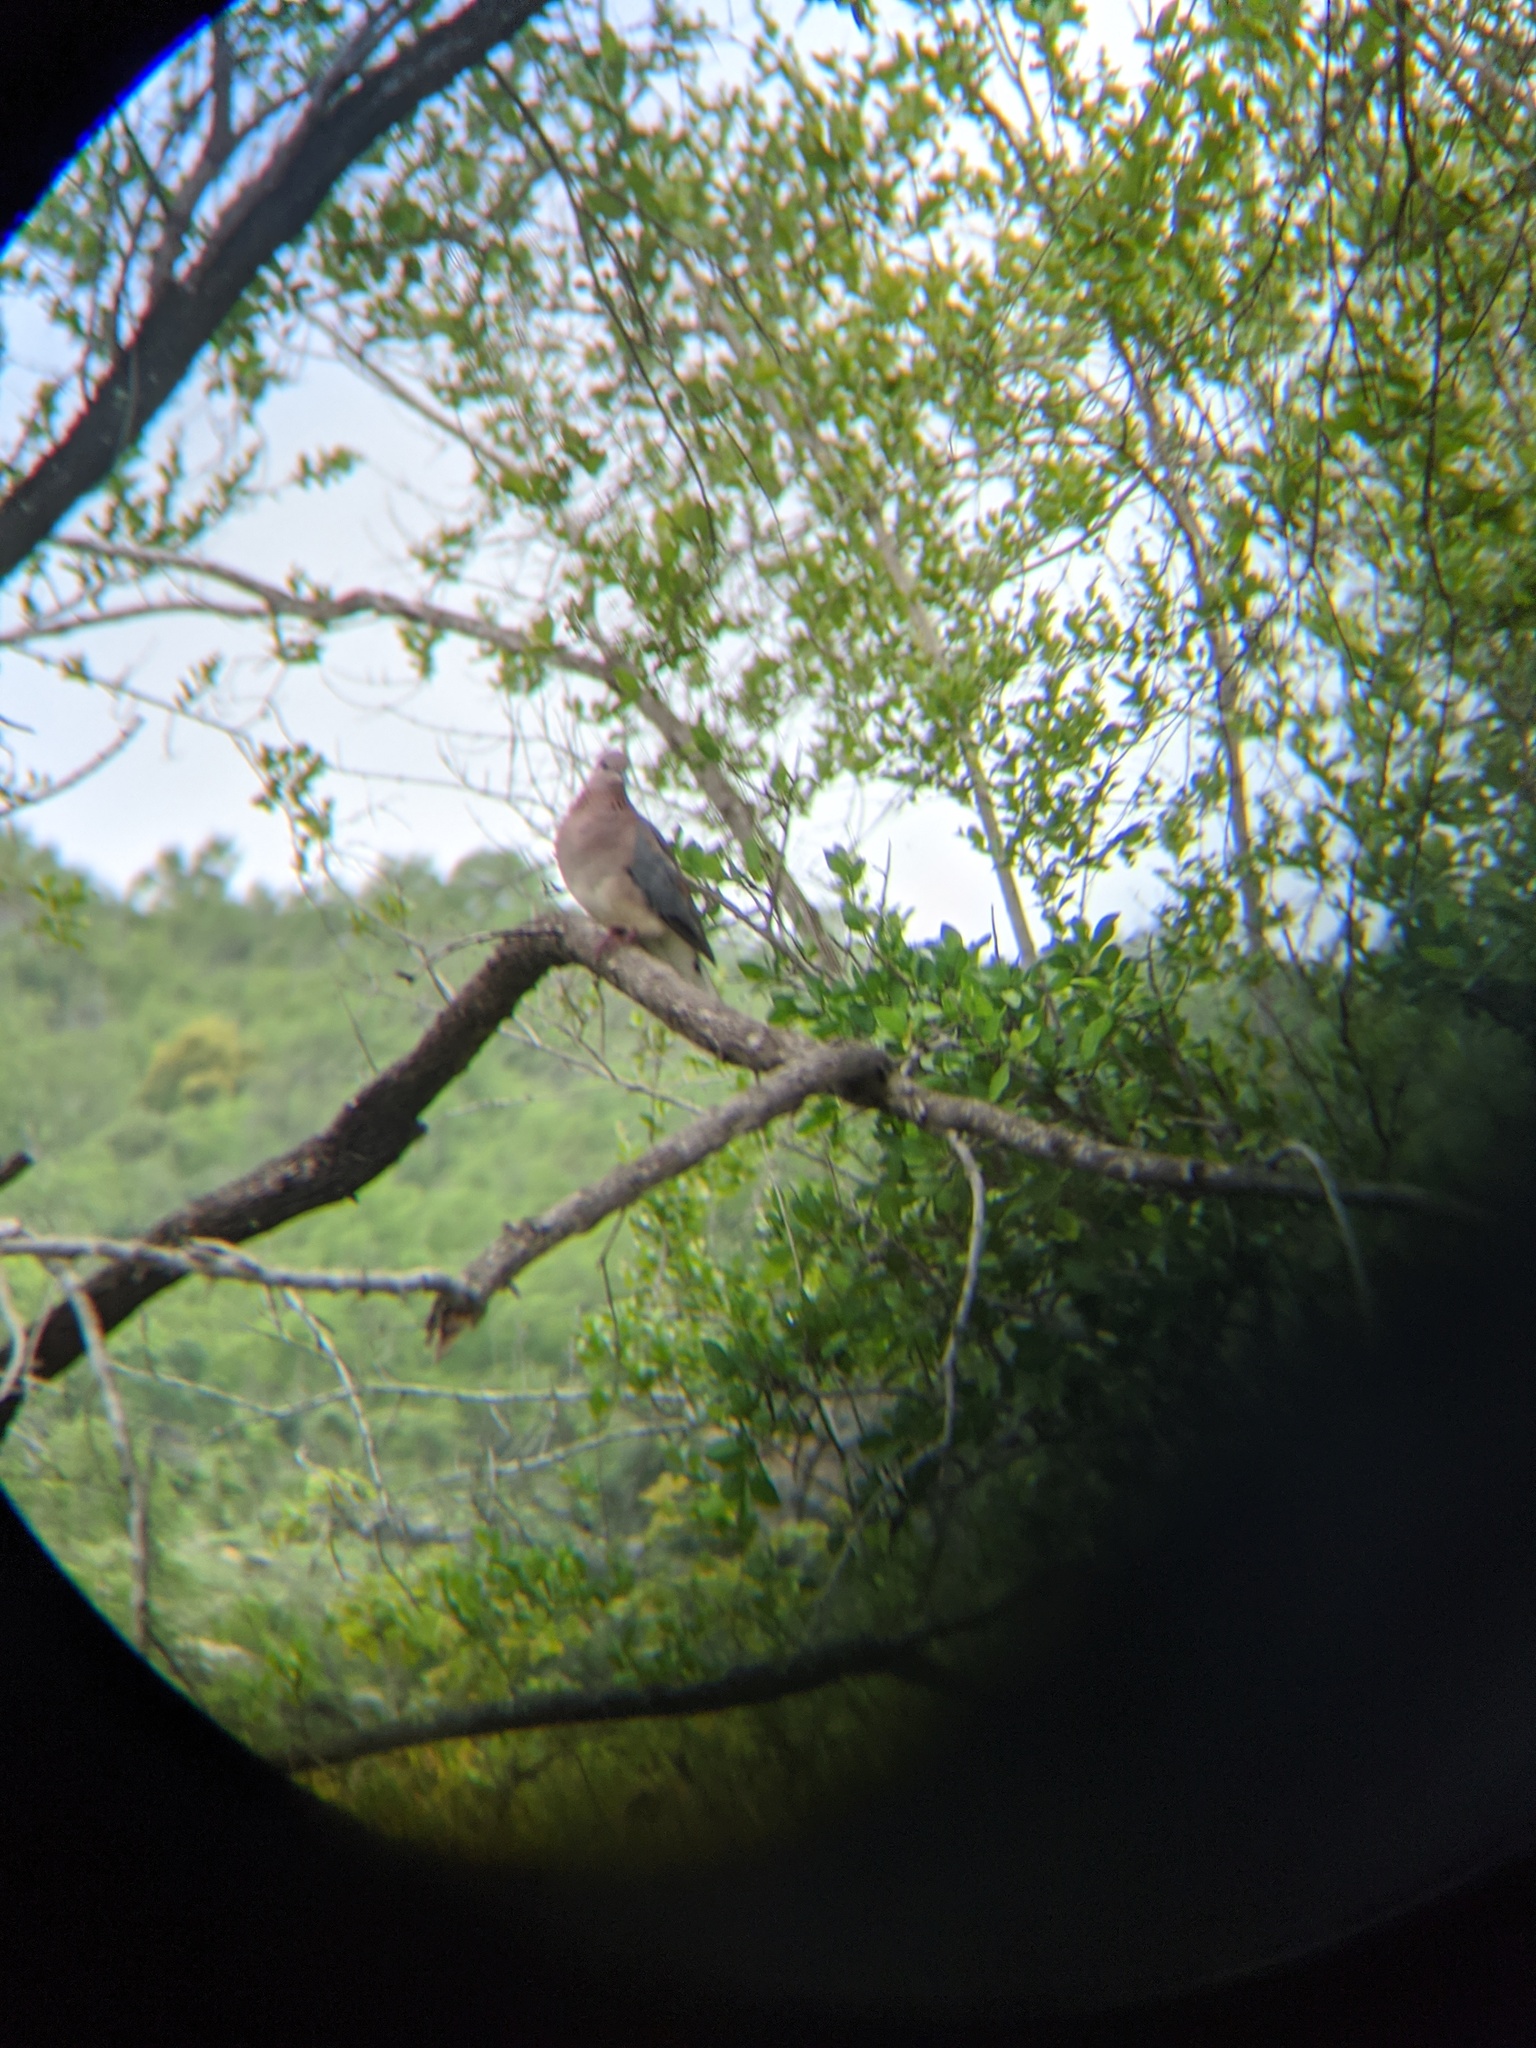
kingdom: Animalia
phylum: Chordata
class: Aves
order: Columbiformes
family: Columbidae
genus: Spilopelia
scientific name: Spilopelia senegalensis
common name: Laughing dove
